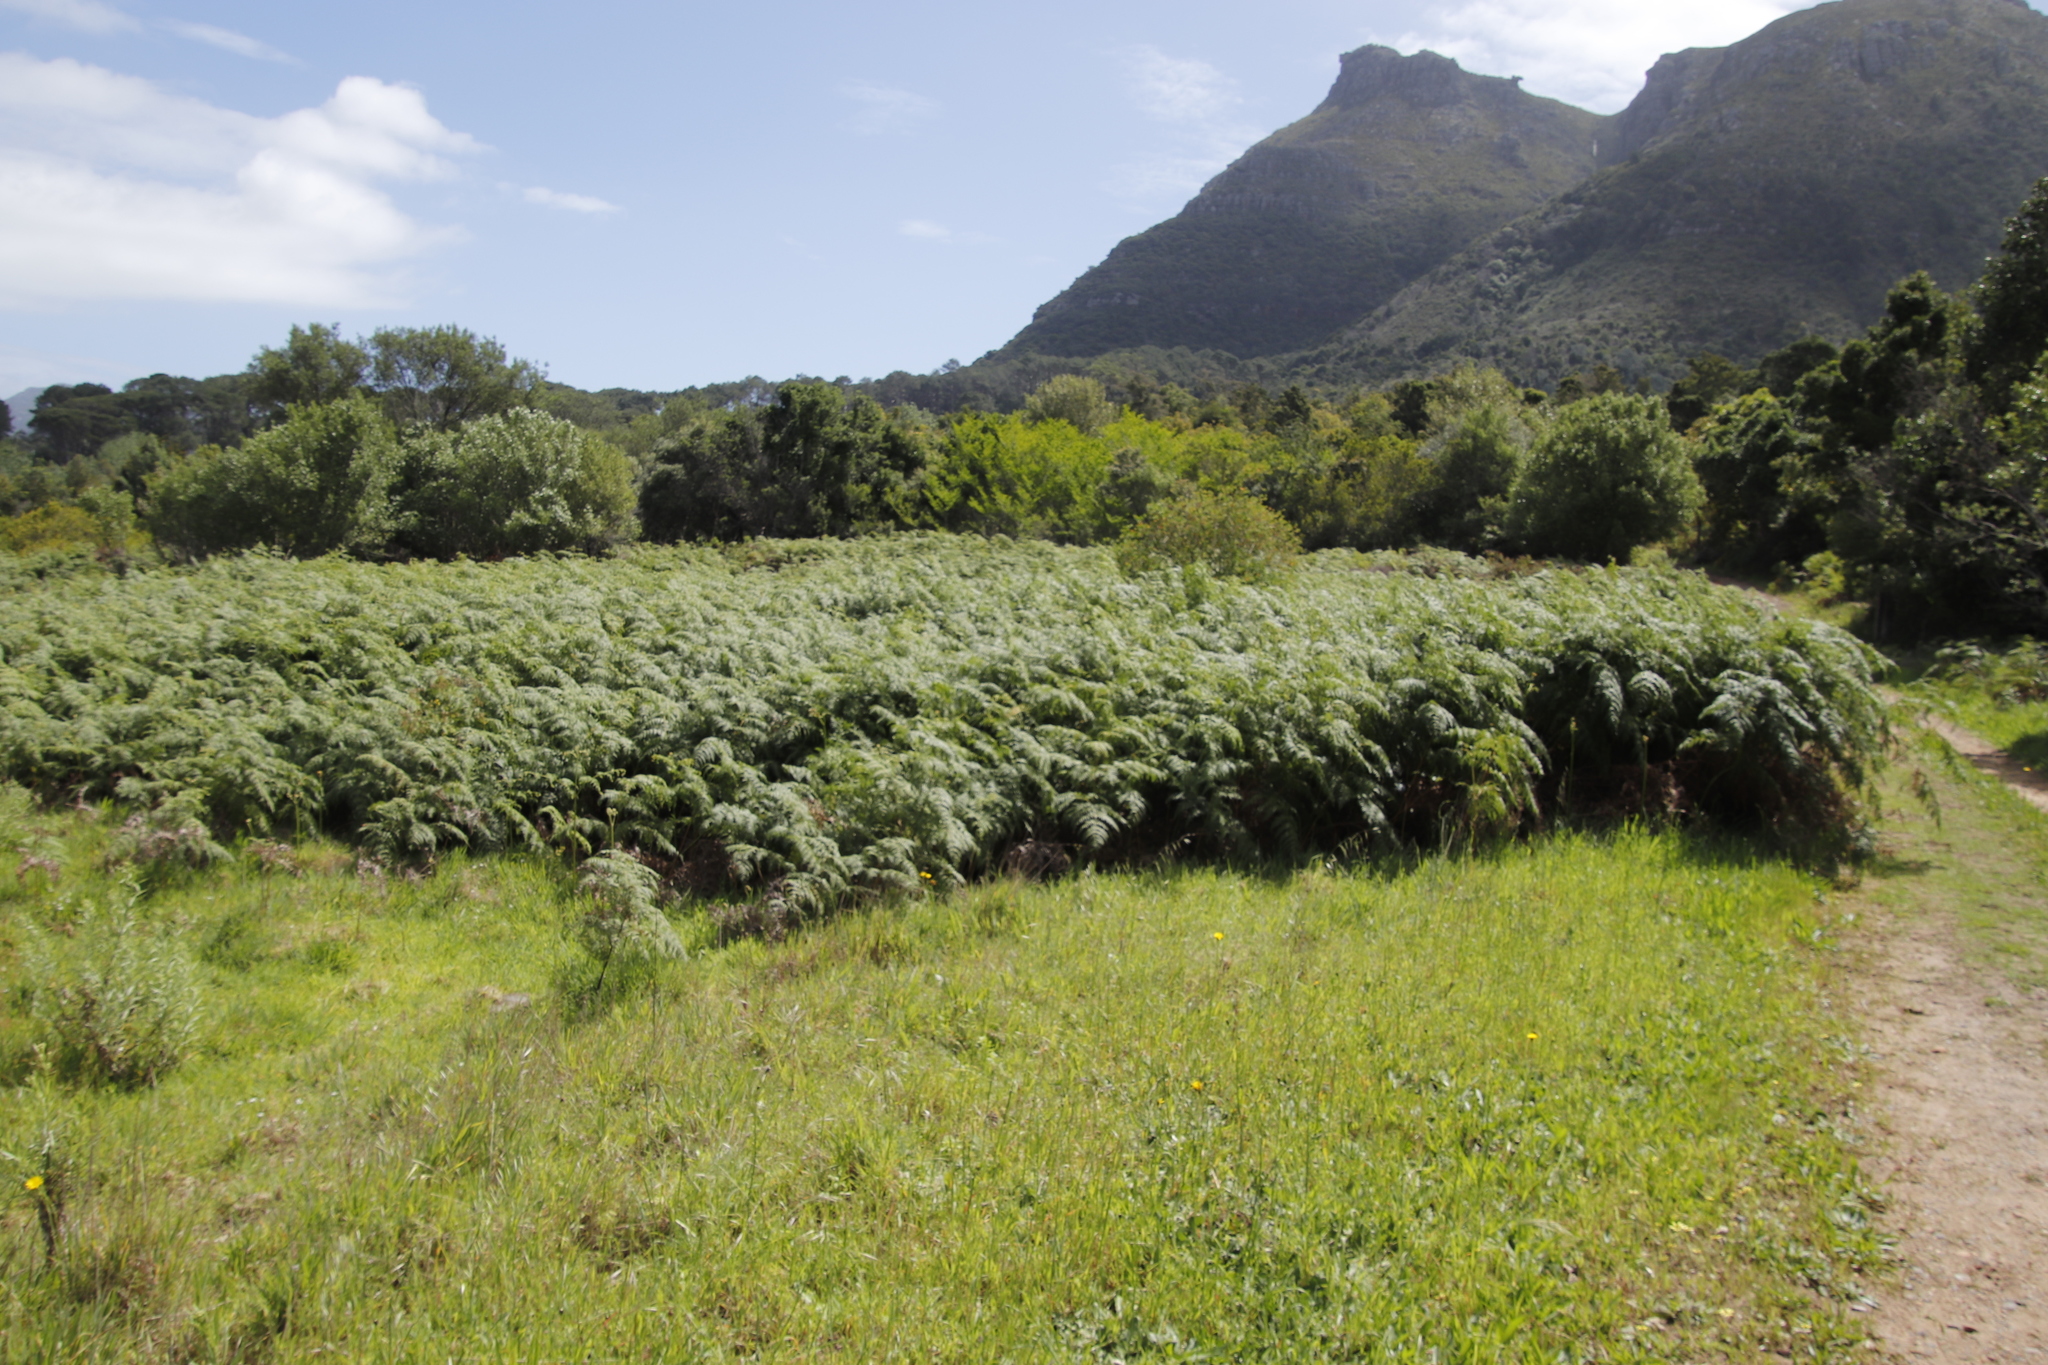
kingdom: Plantae
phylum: Tracheophyta
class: Polypodiopsida
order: Polypodiales
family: Dennstaedtiaceae
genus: Pteridium
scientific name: Pteridium aquilinum
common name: Bracken
